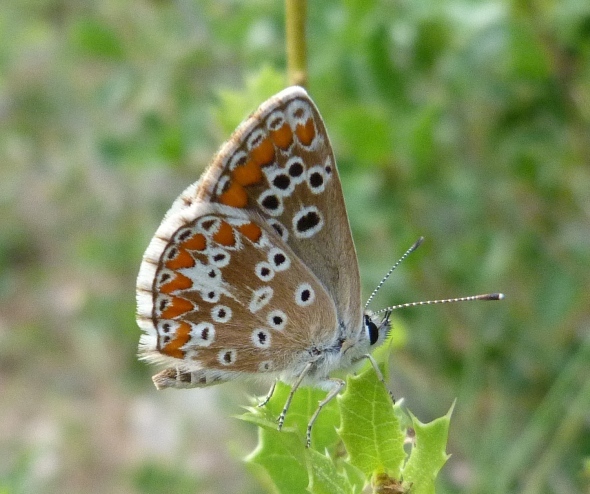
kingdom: Animalia
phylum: Arthropoda
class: Insecta
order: Lepidoptera
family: Lycaenidae
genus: Aricia
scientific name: Aricia cramera
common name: Eschscholtz´s brown  argus
